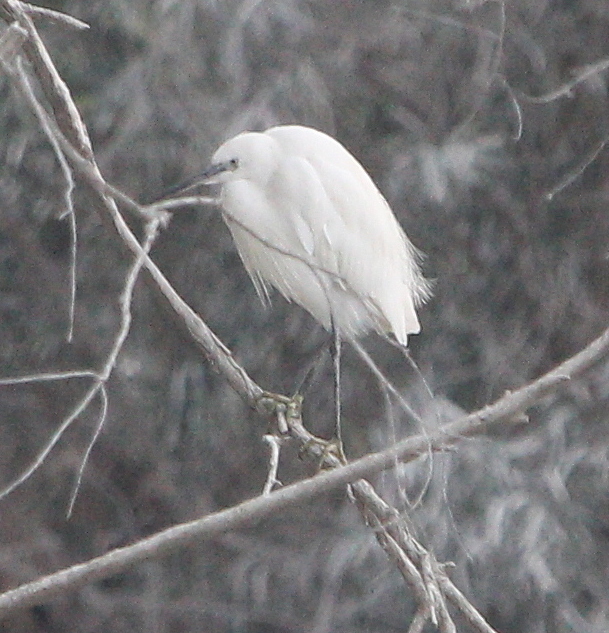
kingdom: Animalia
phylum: Chordata
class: Aves
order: Pelecaniformes
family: Ardeidae
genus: Egretta
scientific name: Egretta garzetta
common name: Little egret
